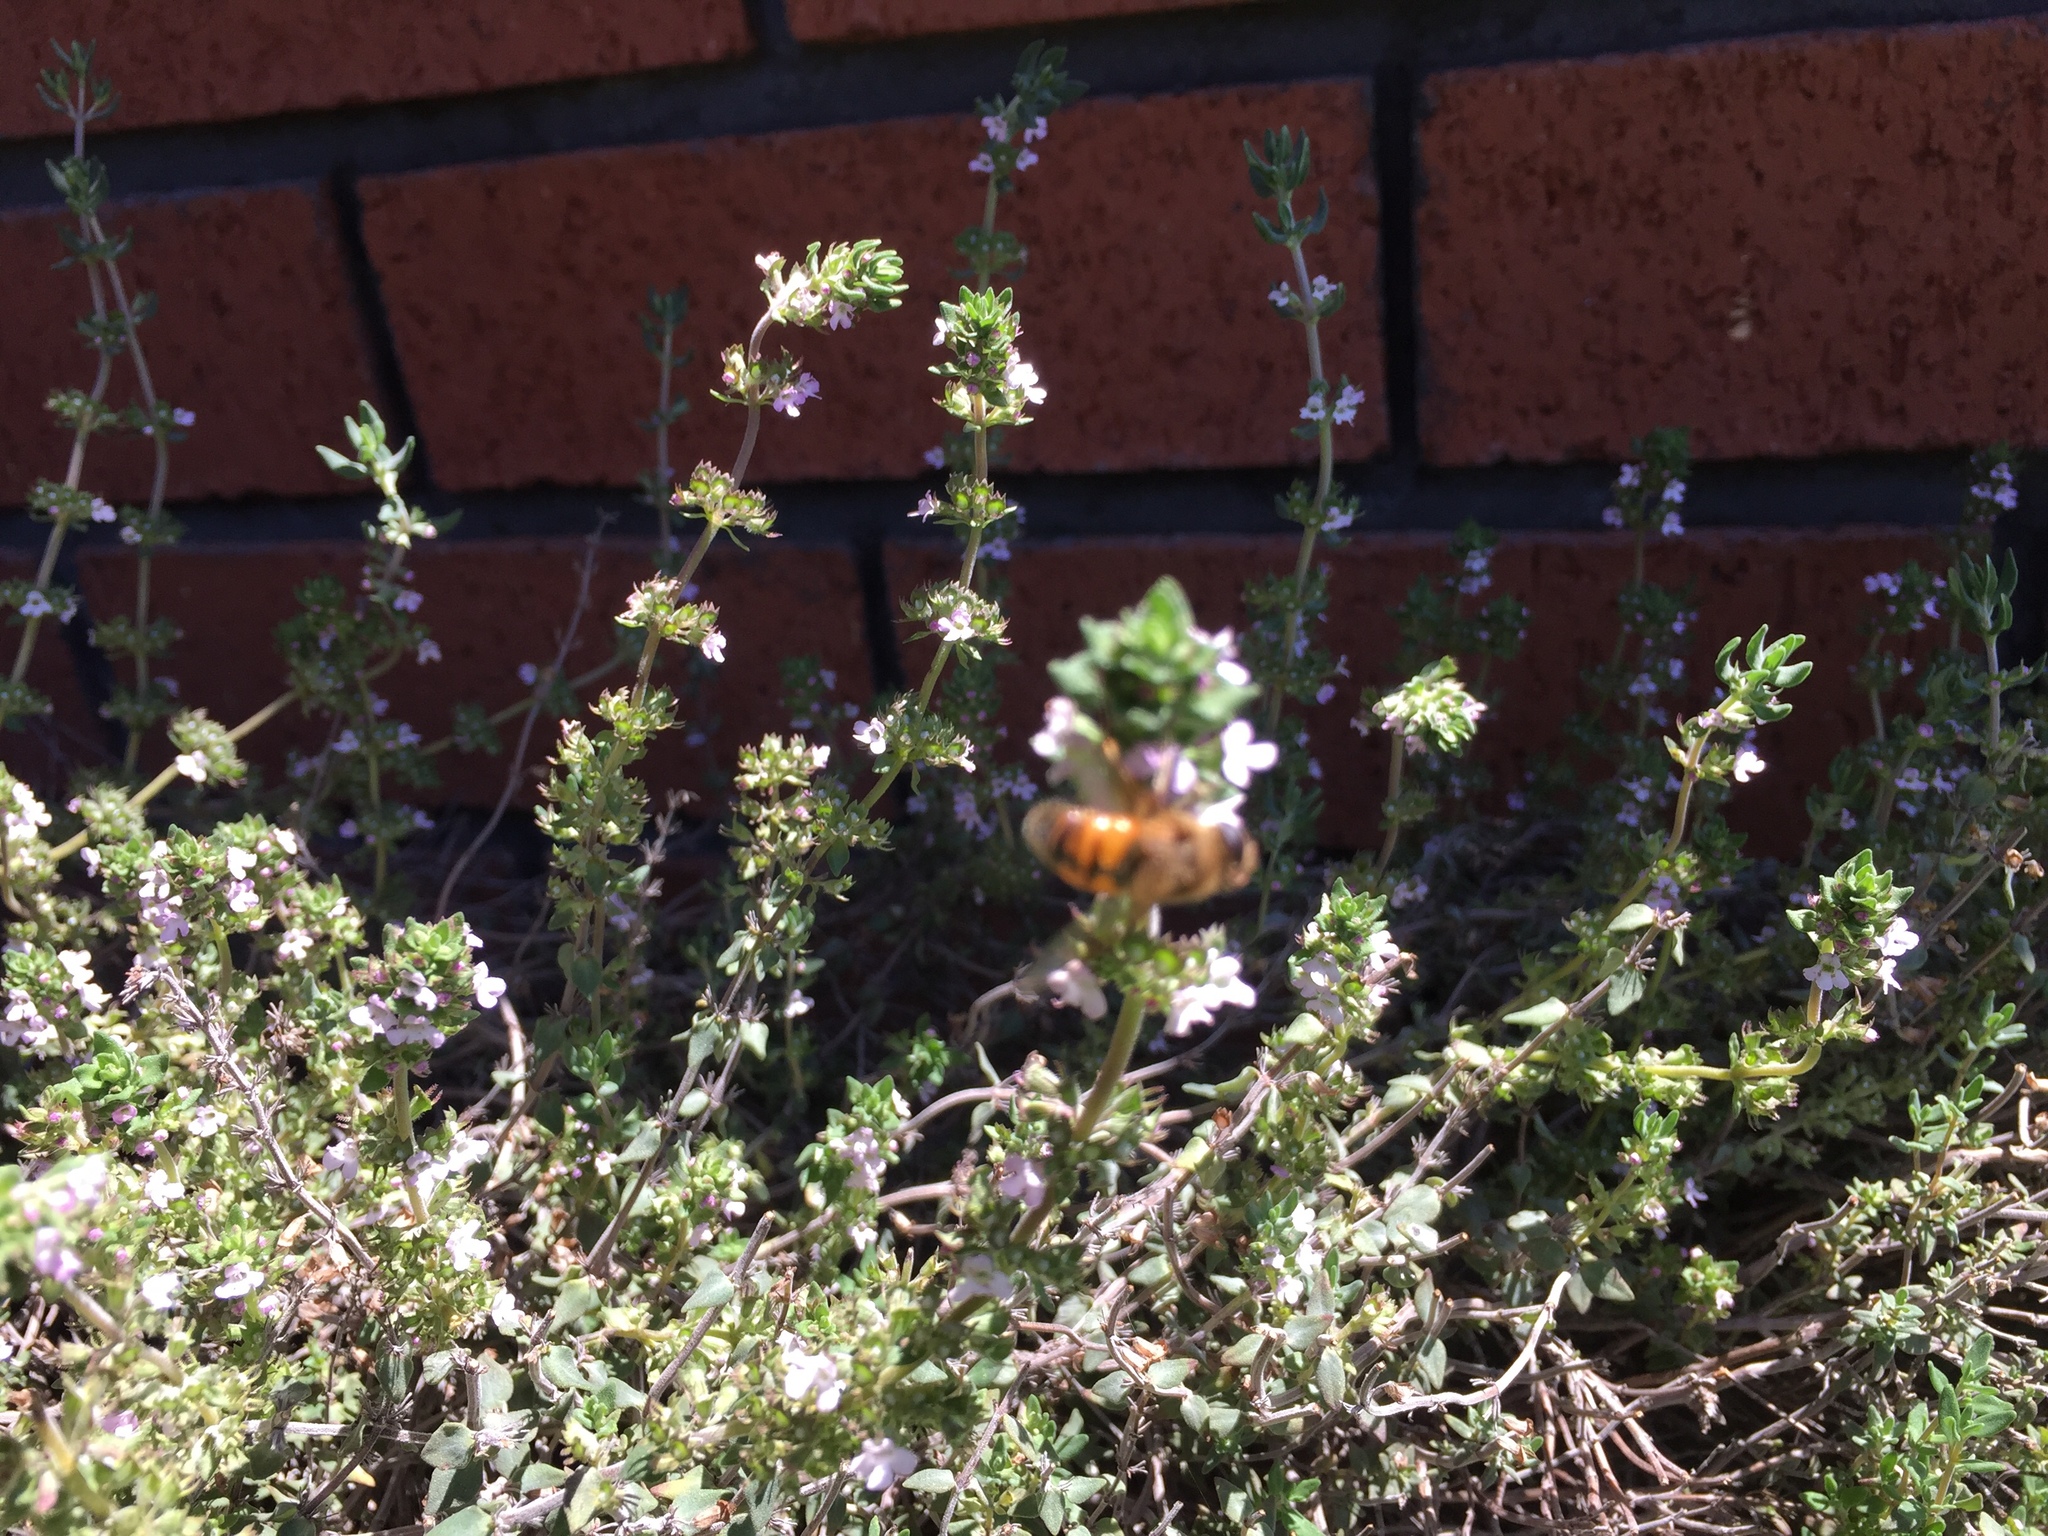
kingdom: Animalia
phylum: Arthropoda
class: Insecta
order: Hymenoptera
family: Apidae
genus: Apis
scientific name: Apis mellifera
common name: Honey bee
